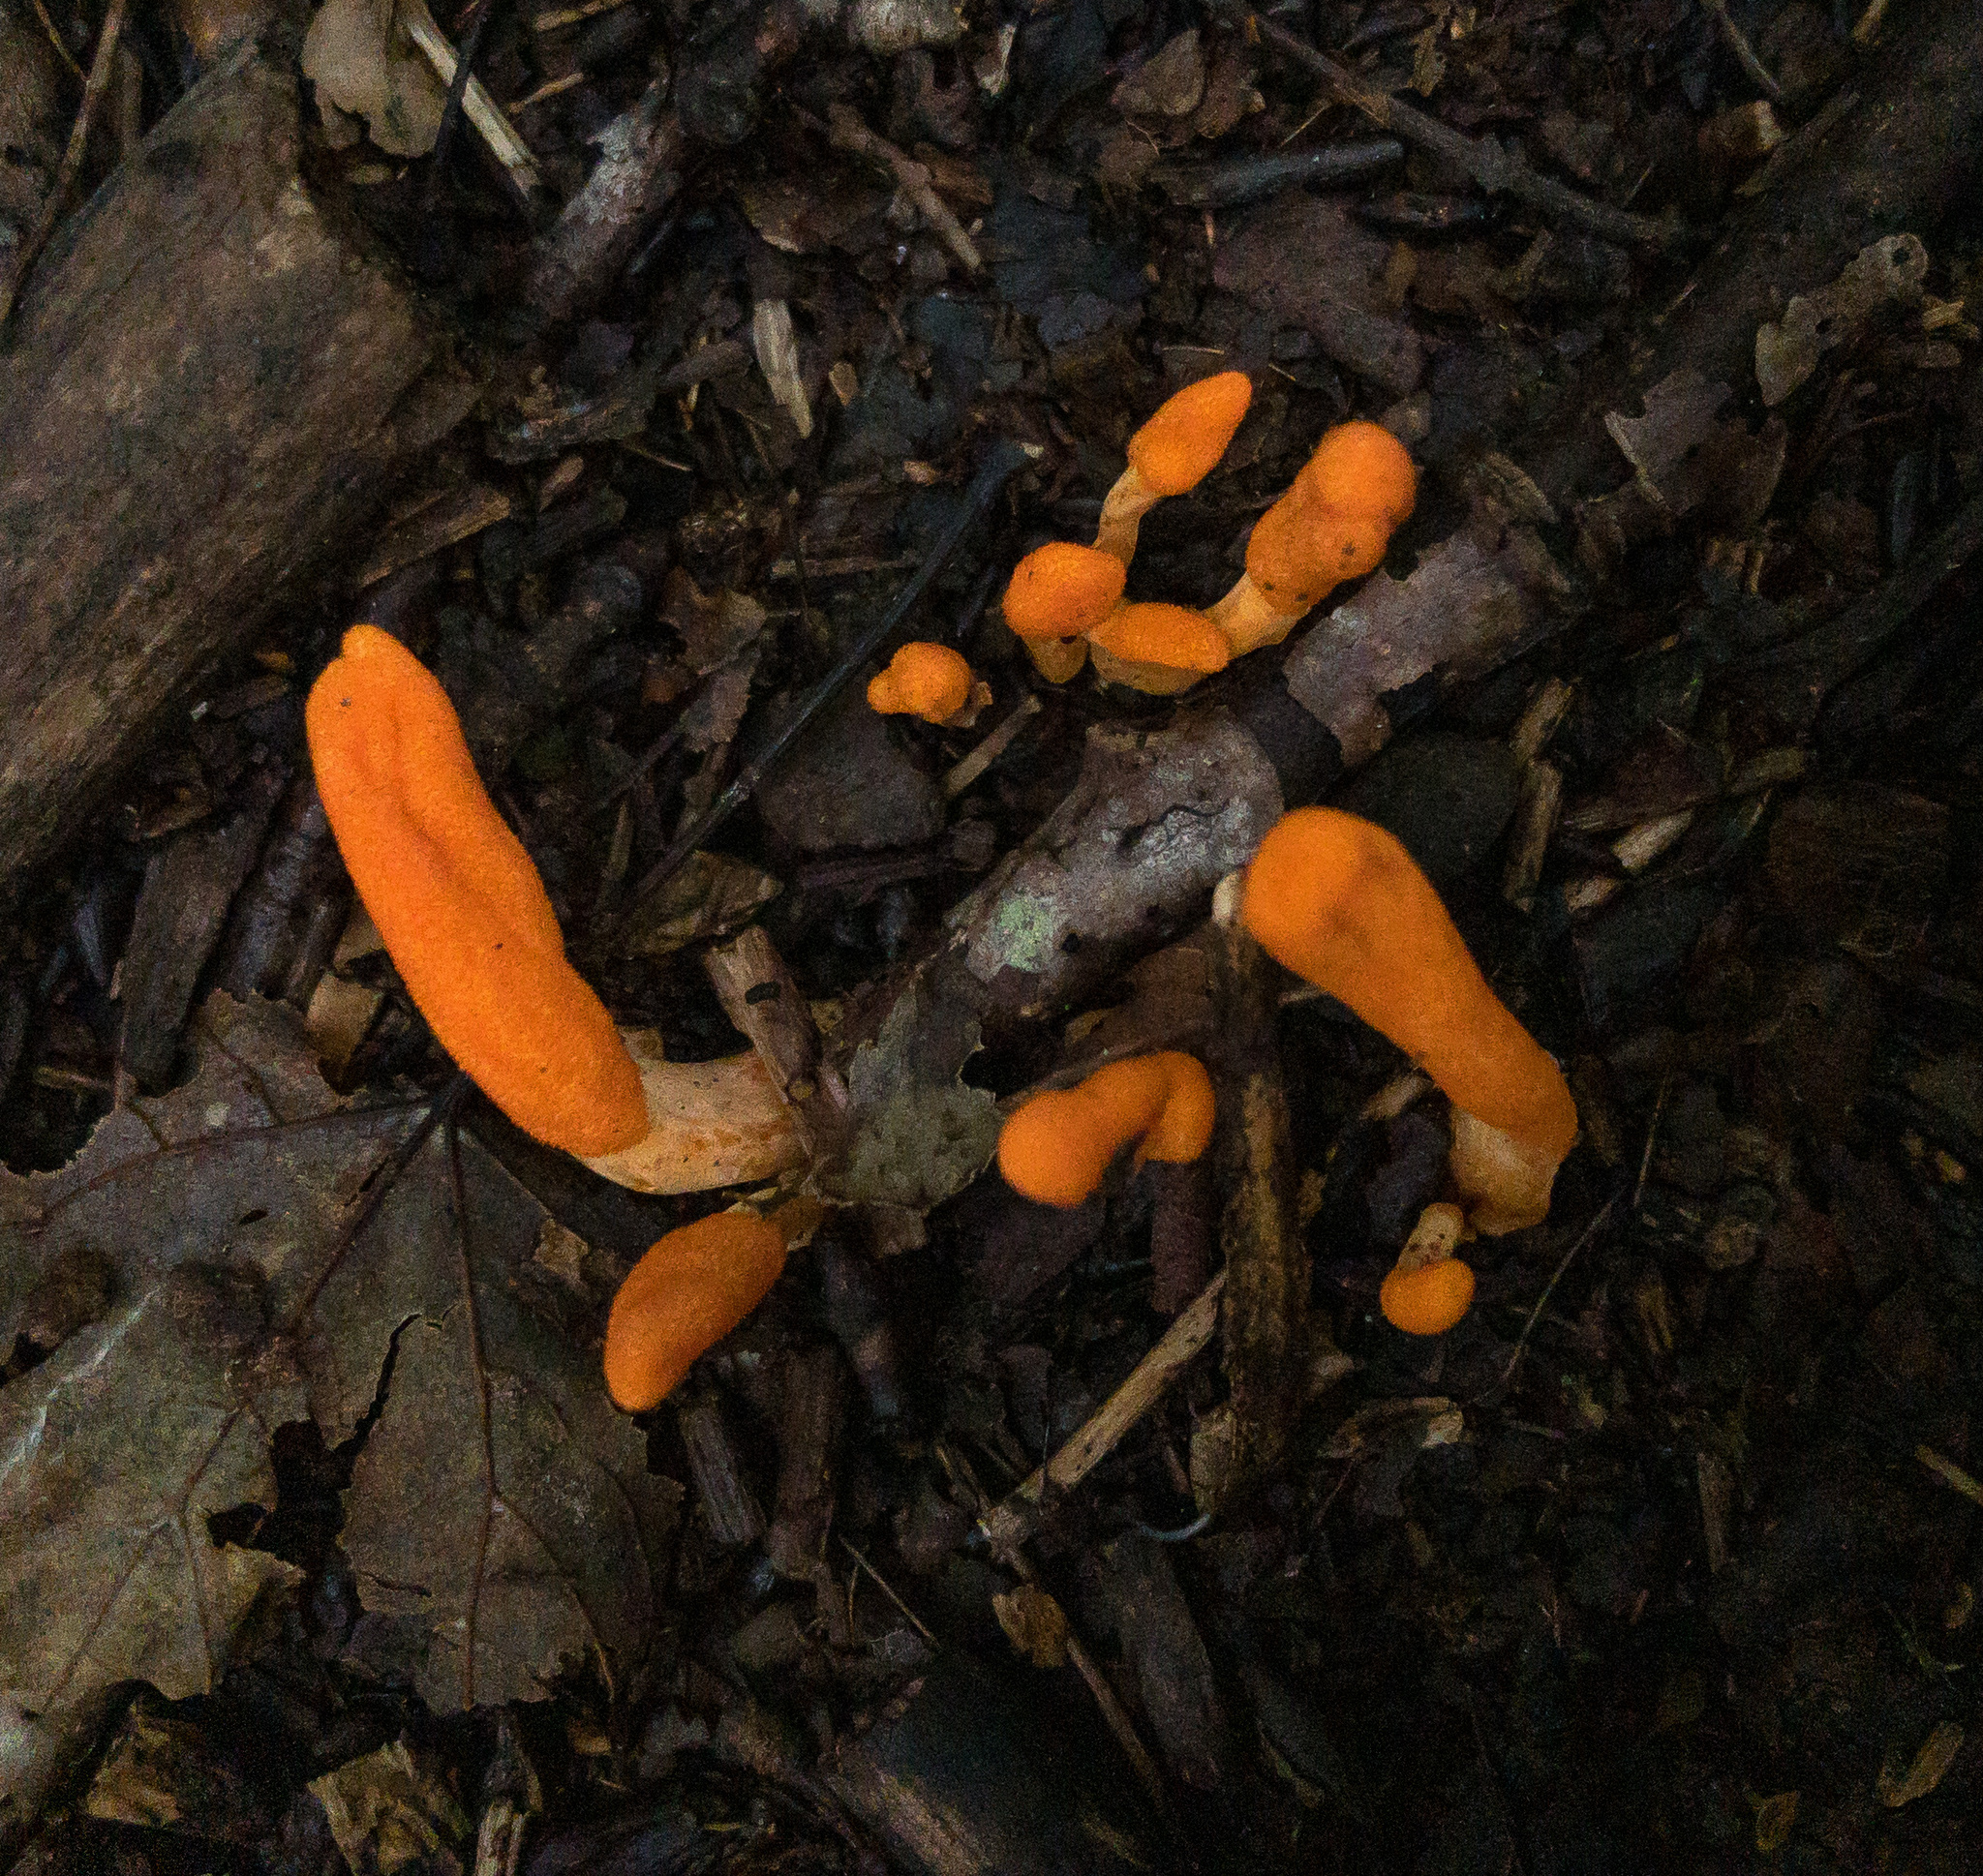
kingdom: Fungi
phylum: Ascomycota
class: Sordariomycetes
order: Hypocreales
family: Cordycipitaceae
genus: Cordyceps
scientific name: Cordyceps militaris
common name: Scarlet caterpillar fungus
